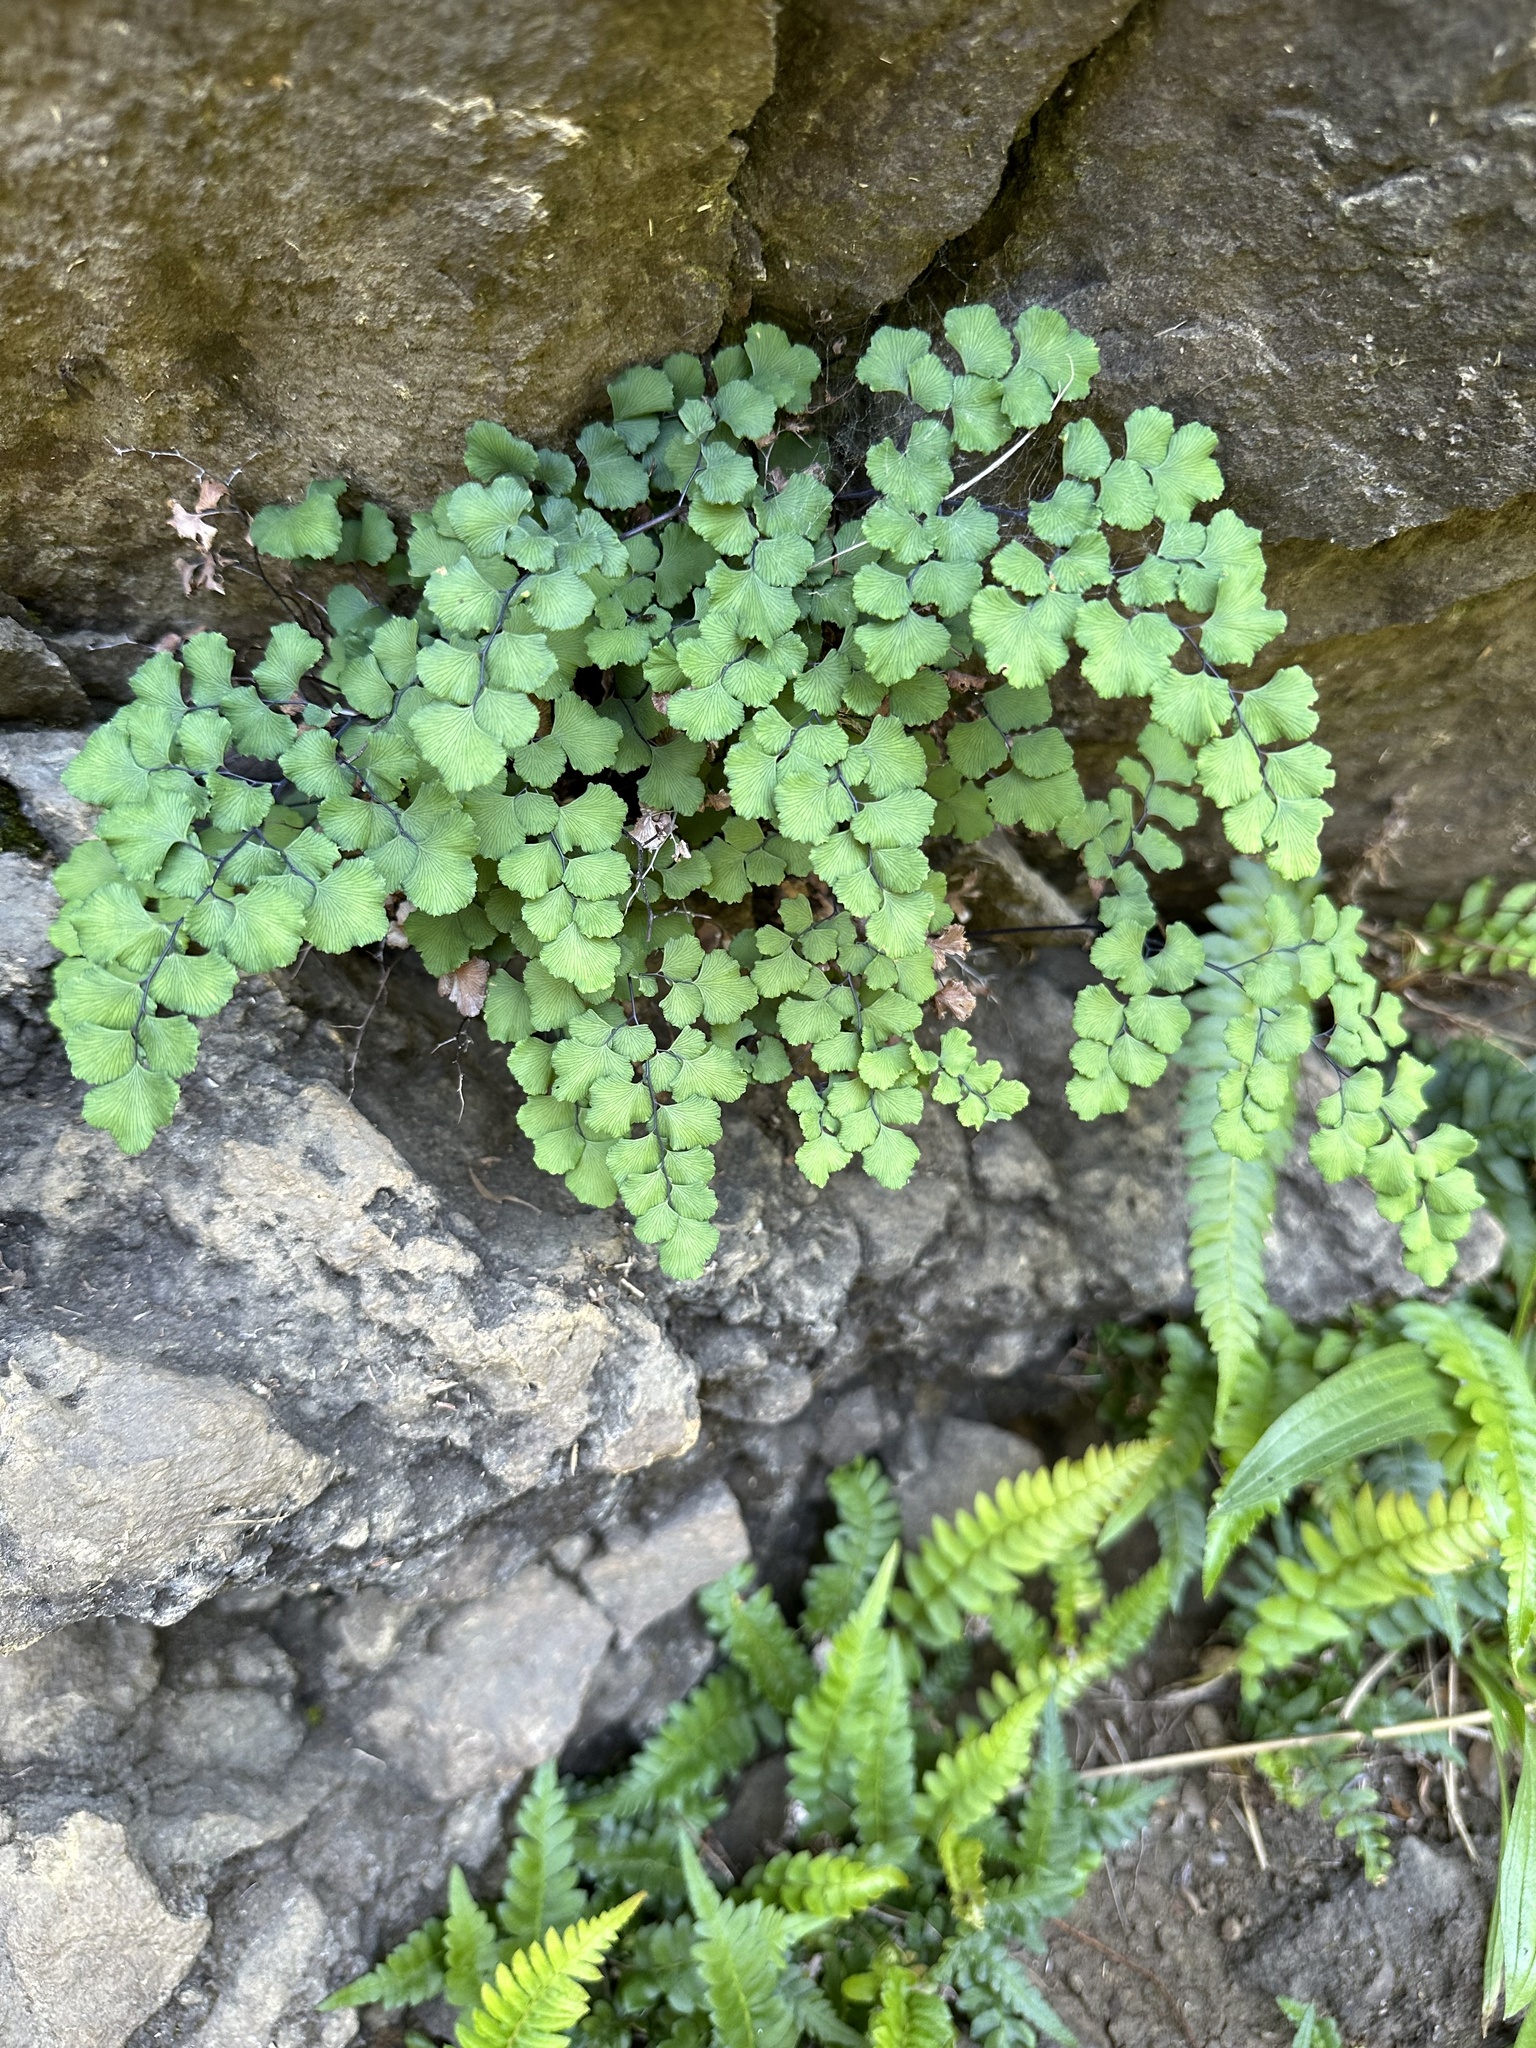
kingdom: Plantae
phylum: Tracheophyta
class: Polypodiopsida
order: Polypodiales
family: Pteridaceae
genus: Adiantum
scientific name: Adiantum chilense
